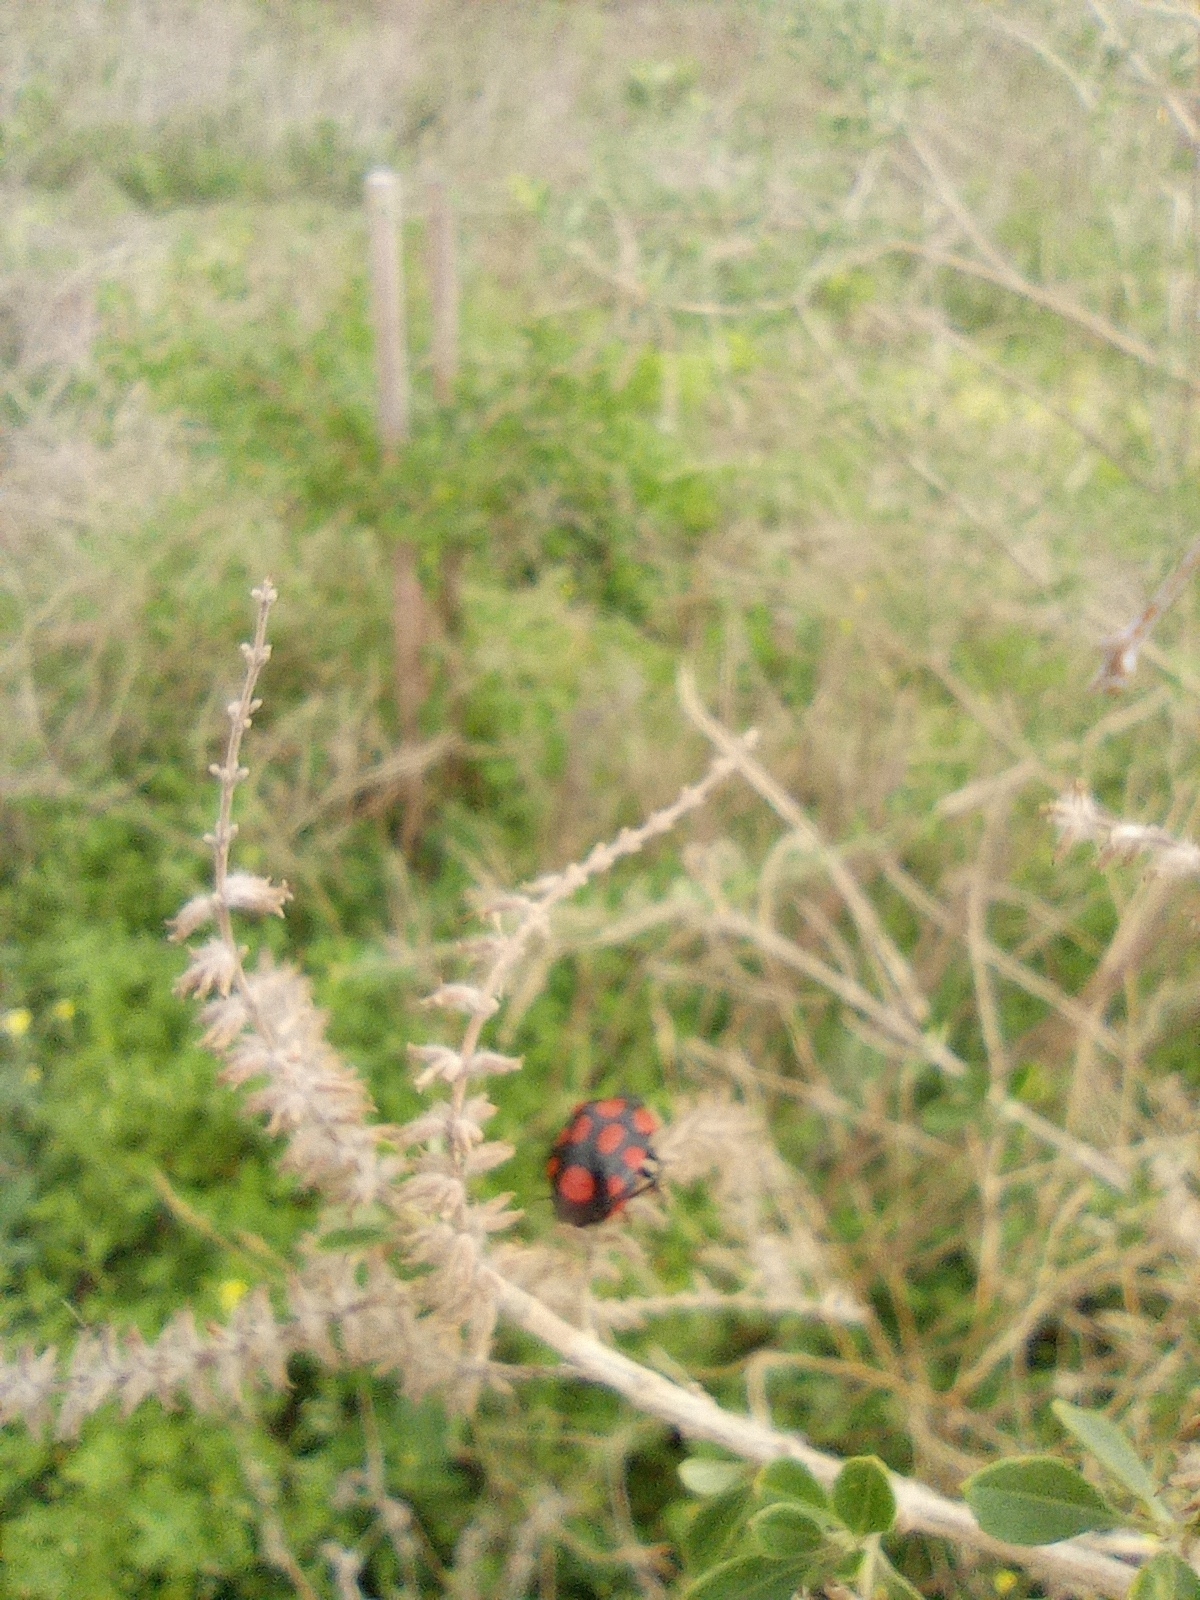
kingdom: Animalia
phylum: Arthropoda
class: Insecta
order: Hemiptera
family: Pentatomidae
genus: Stiretrus
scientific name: Stiretrus
